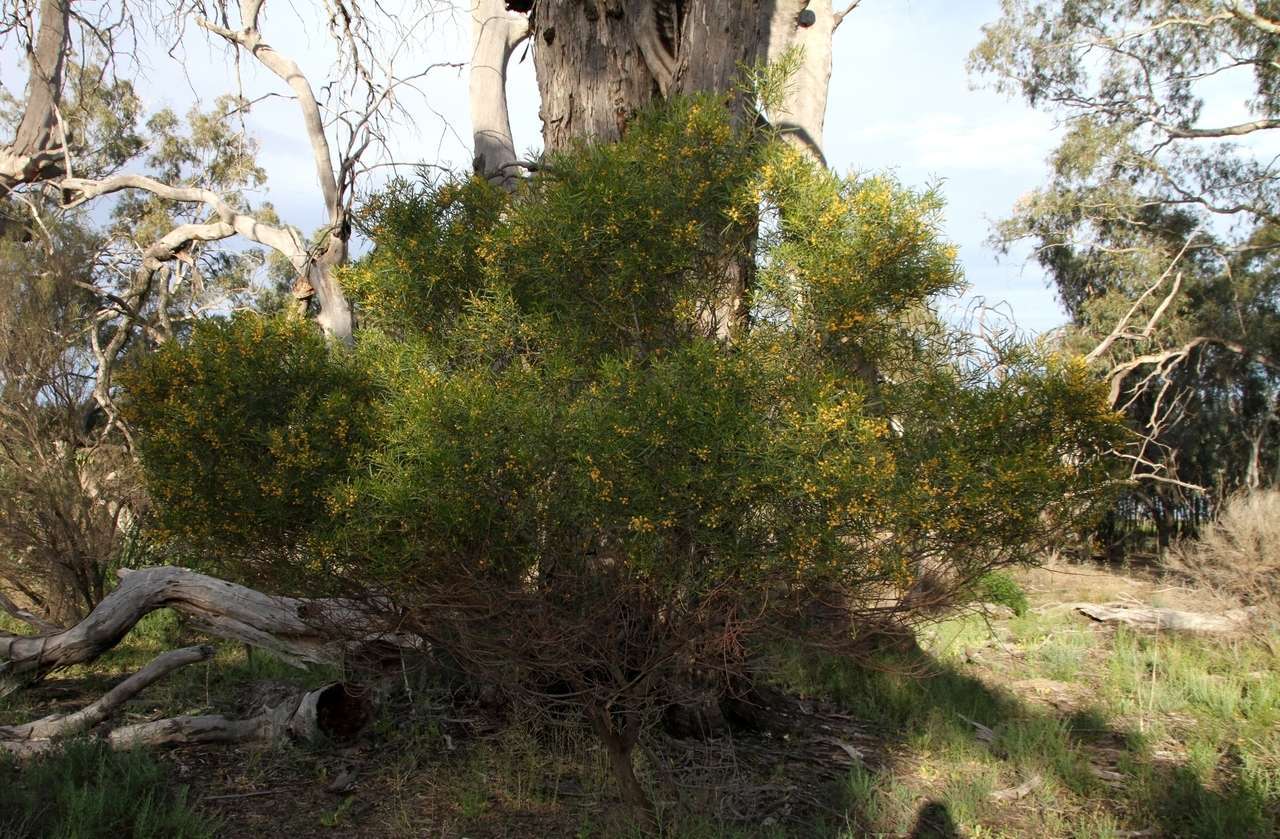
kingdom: Plantae
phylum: Tracheophyta
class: Magnoliopsida
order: Fabales
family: Fabaceae
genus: Acacia
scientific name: Acacia ligulata
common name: Dune wattle
